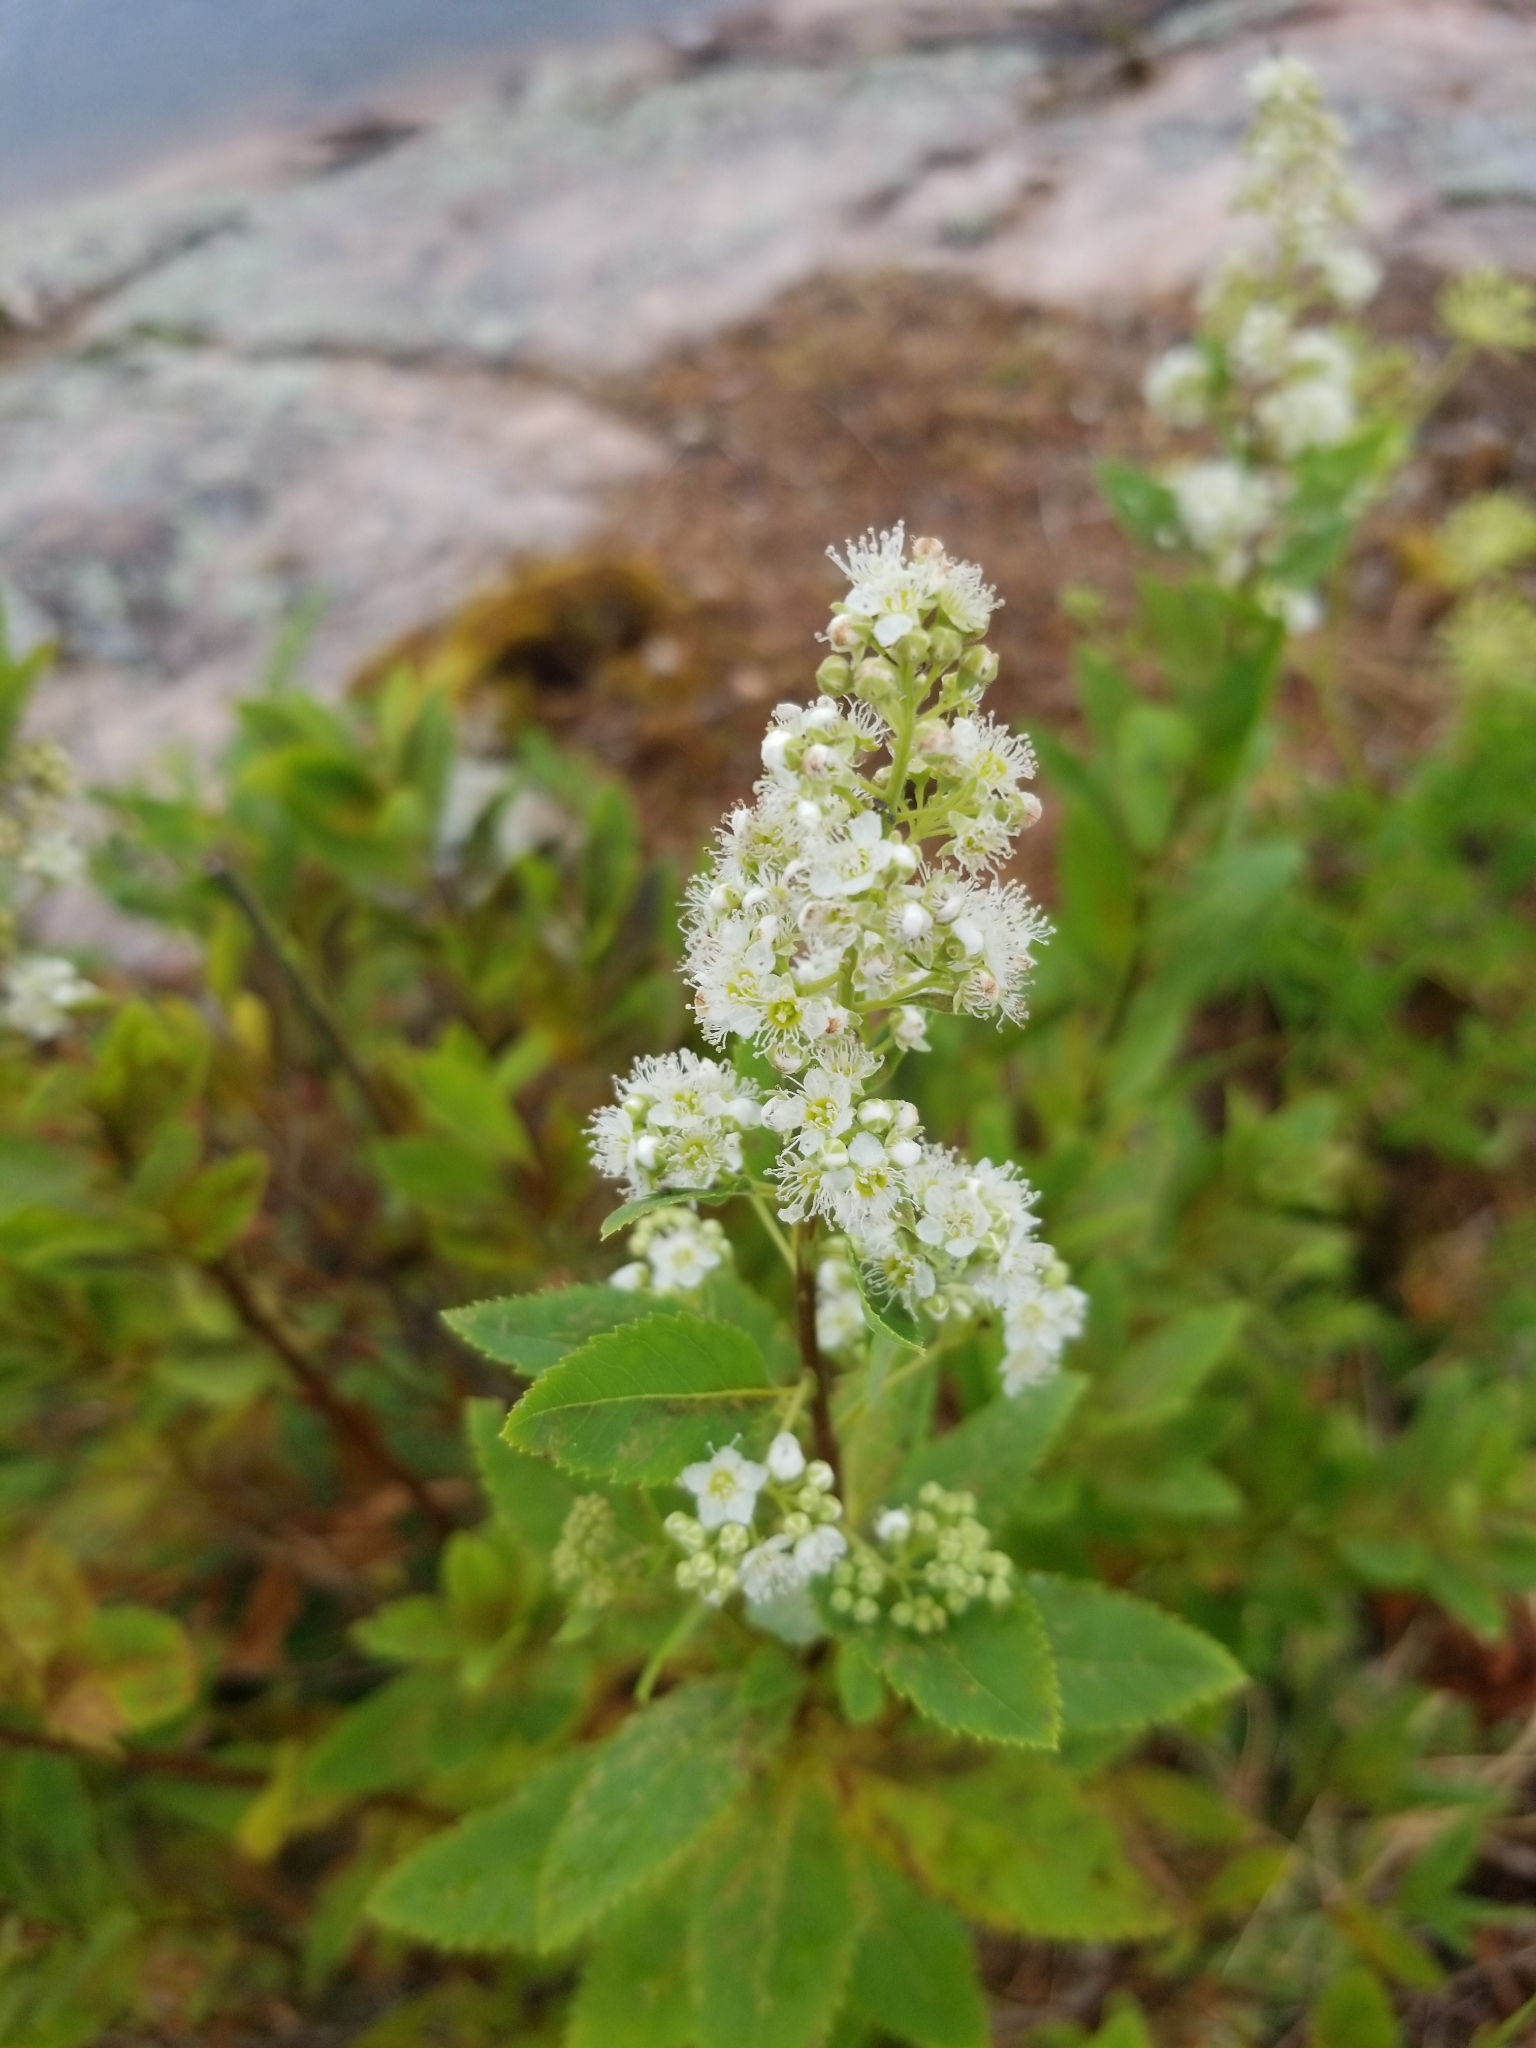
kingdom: Plantae
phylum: Tracheophyta
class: Magnoliopsida
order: Rosales
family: Rosaceae
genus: Spiraea
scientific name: Spiraea alba
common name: Pale bridewort
